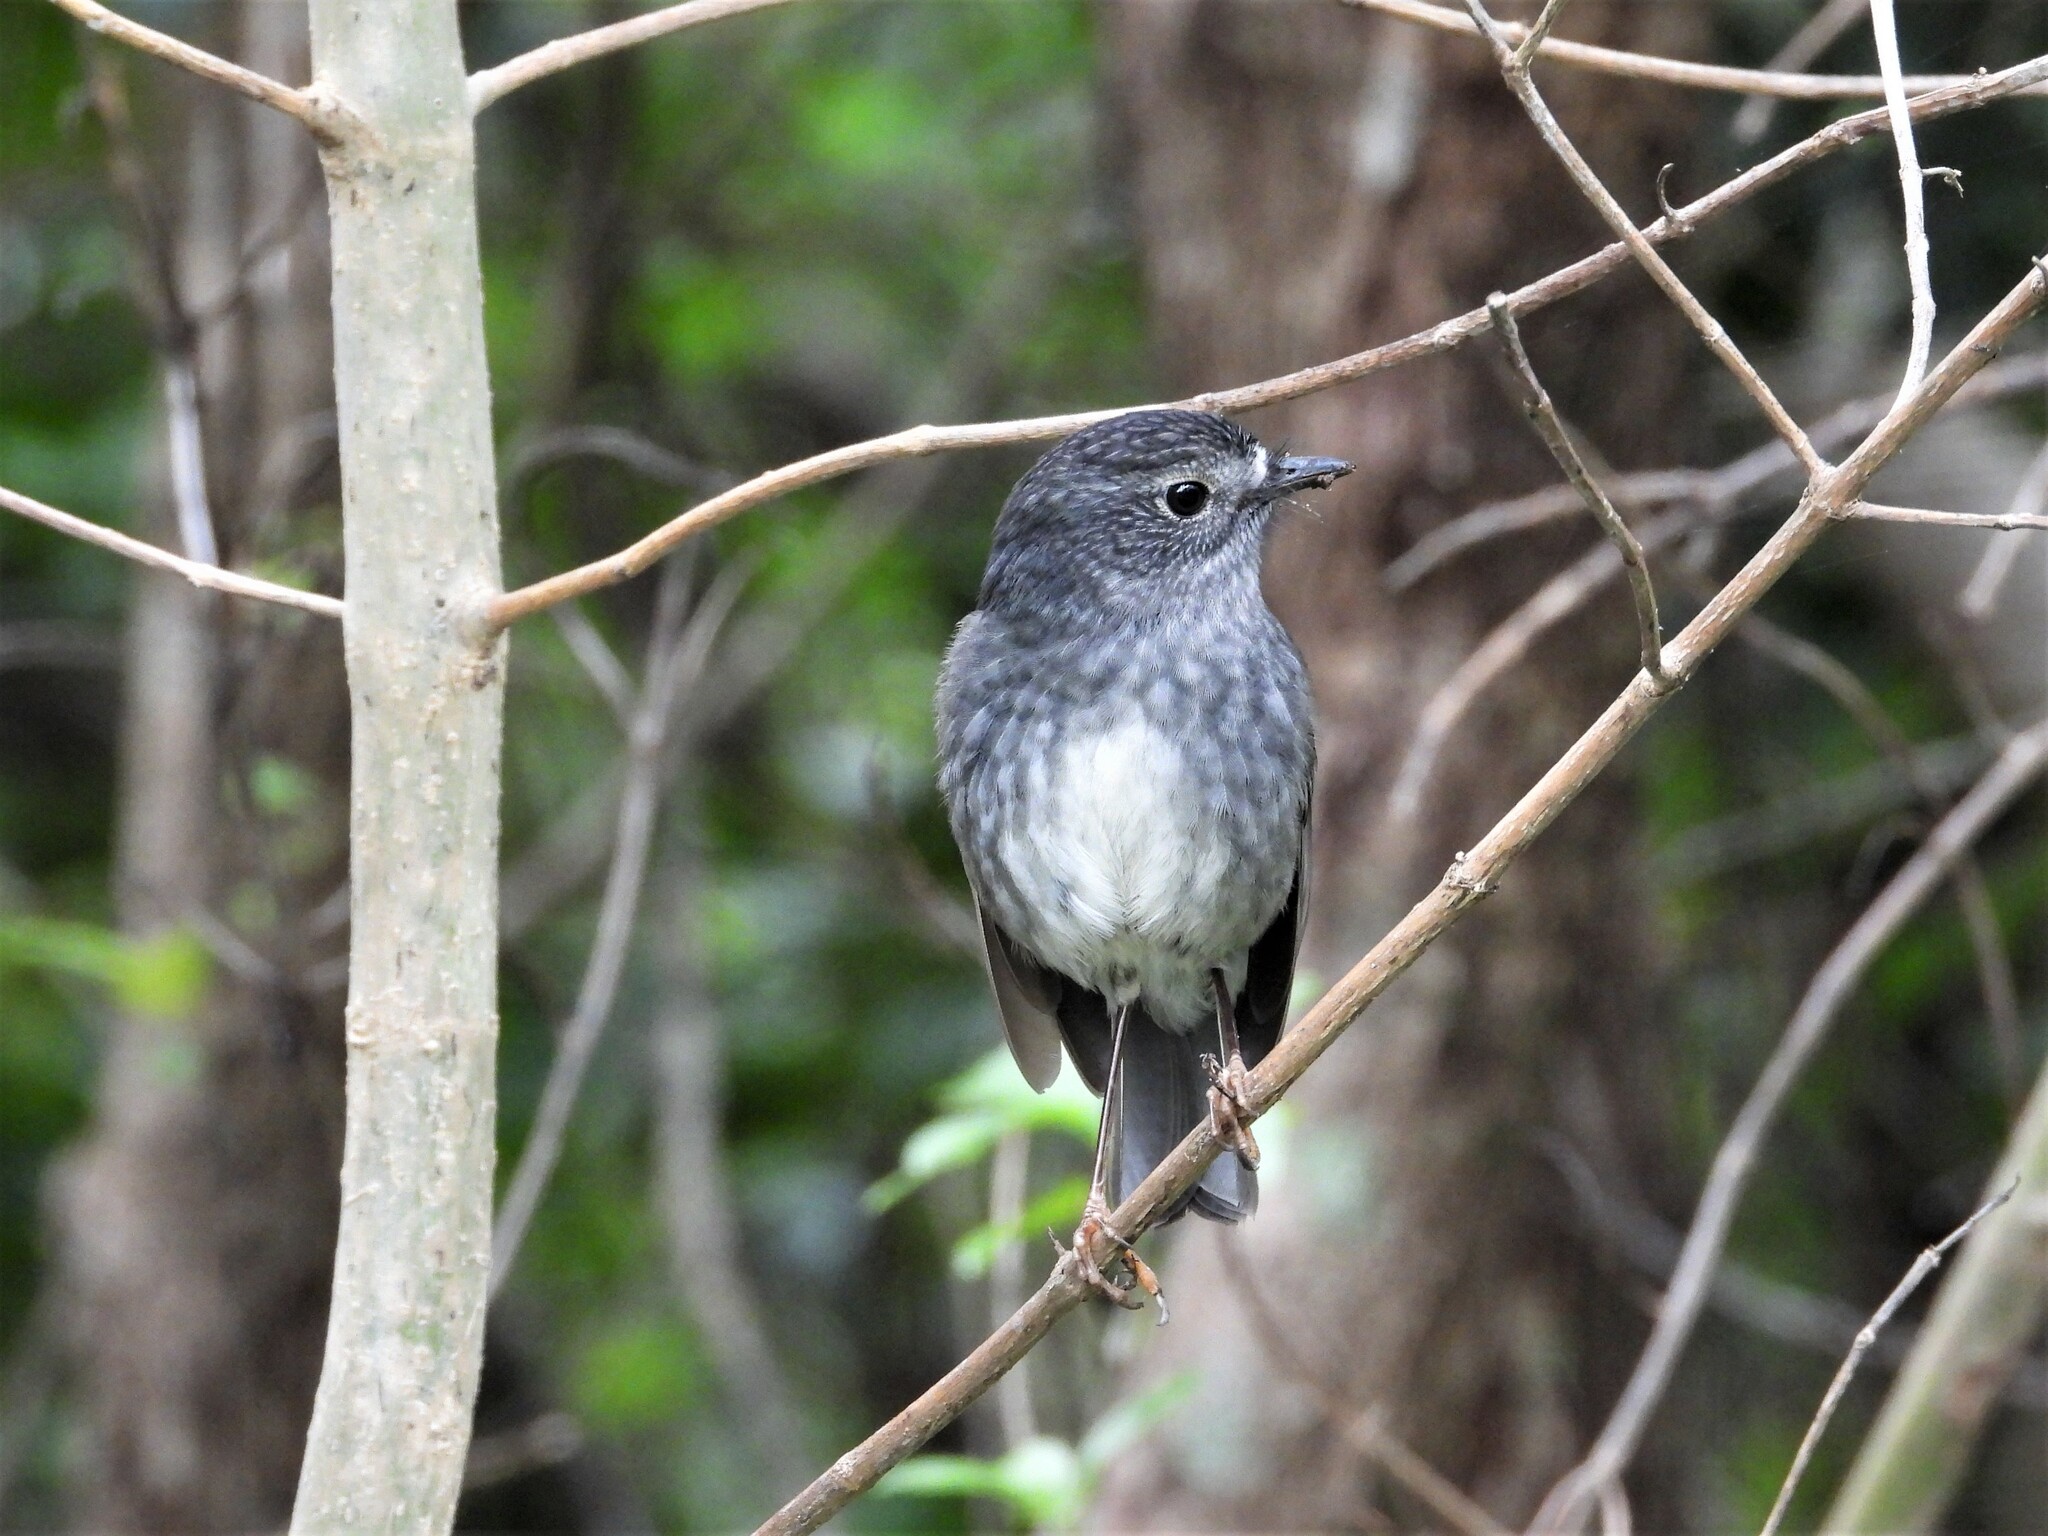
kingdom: Animalia
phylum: Chordata
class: Aves
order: Passeriformes
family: Petroicidae
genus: Petroica
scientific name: Petroica australis
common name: New zealand robin
